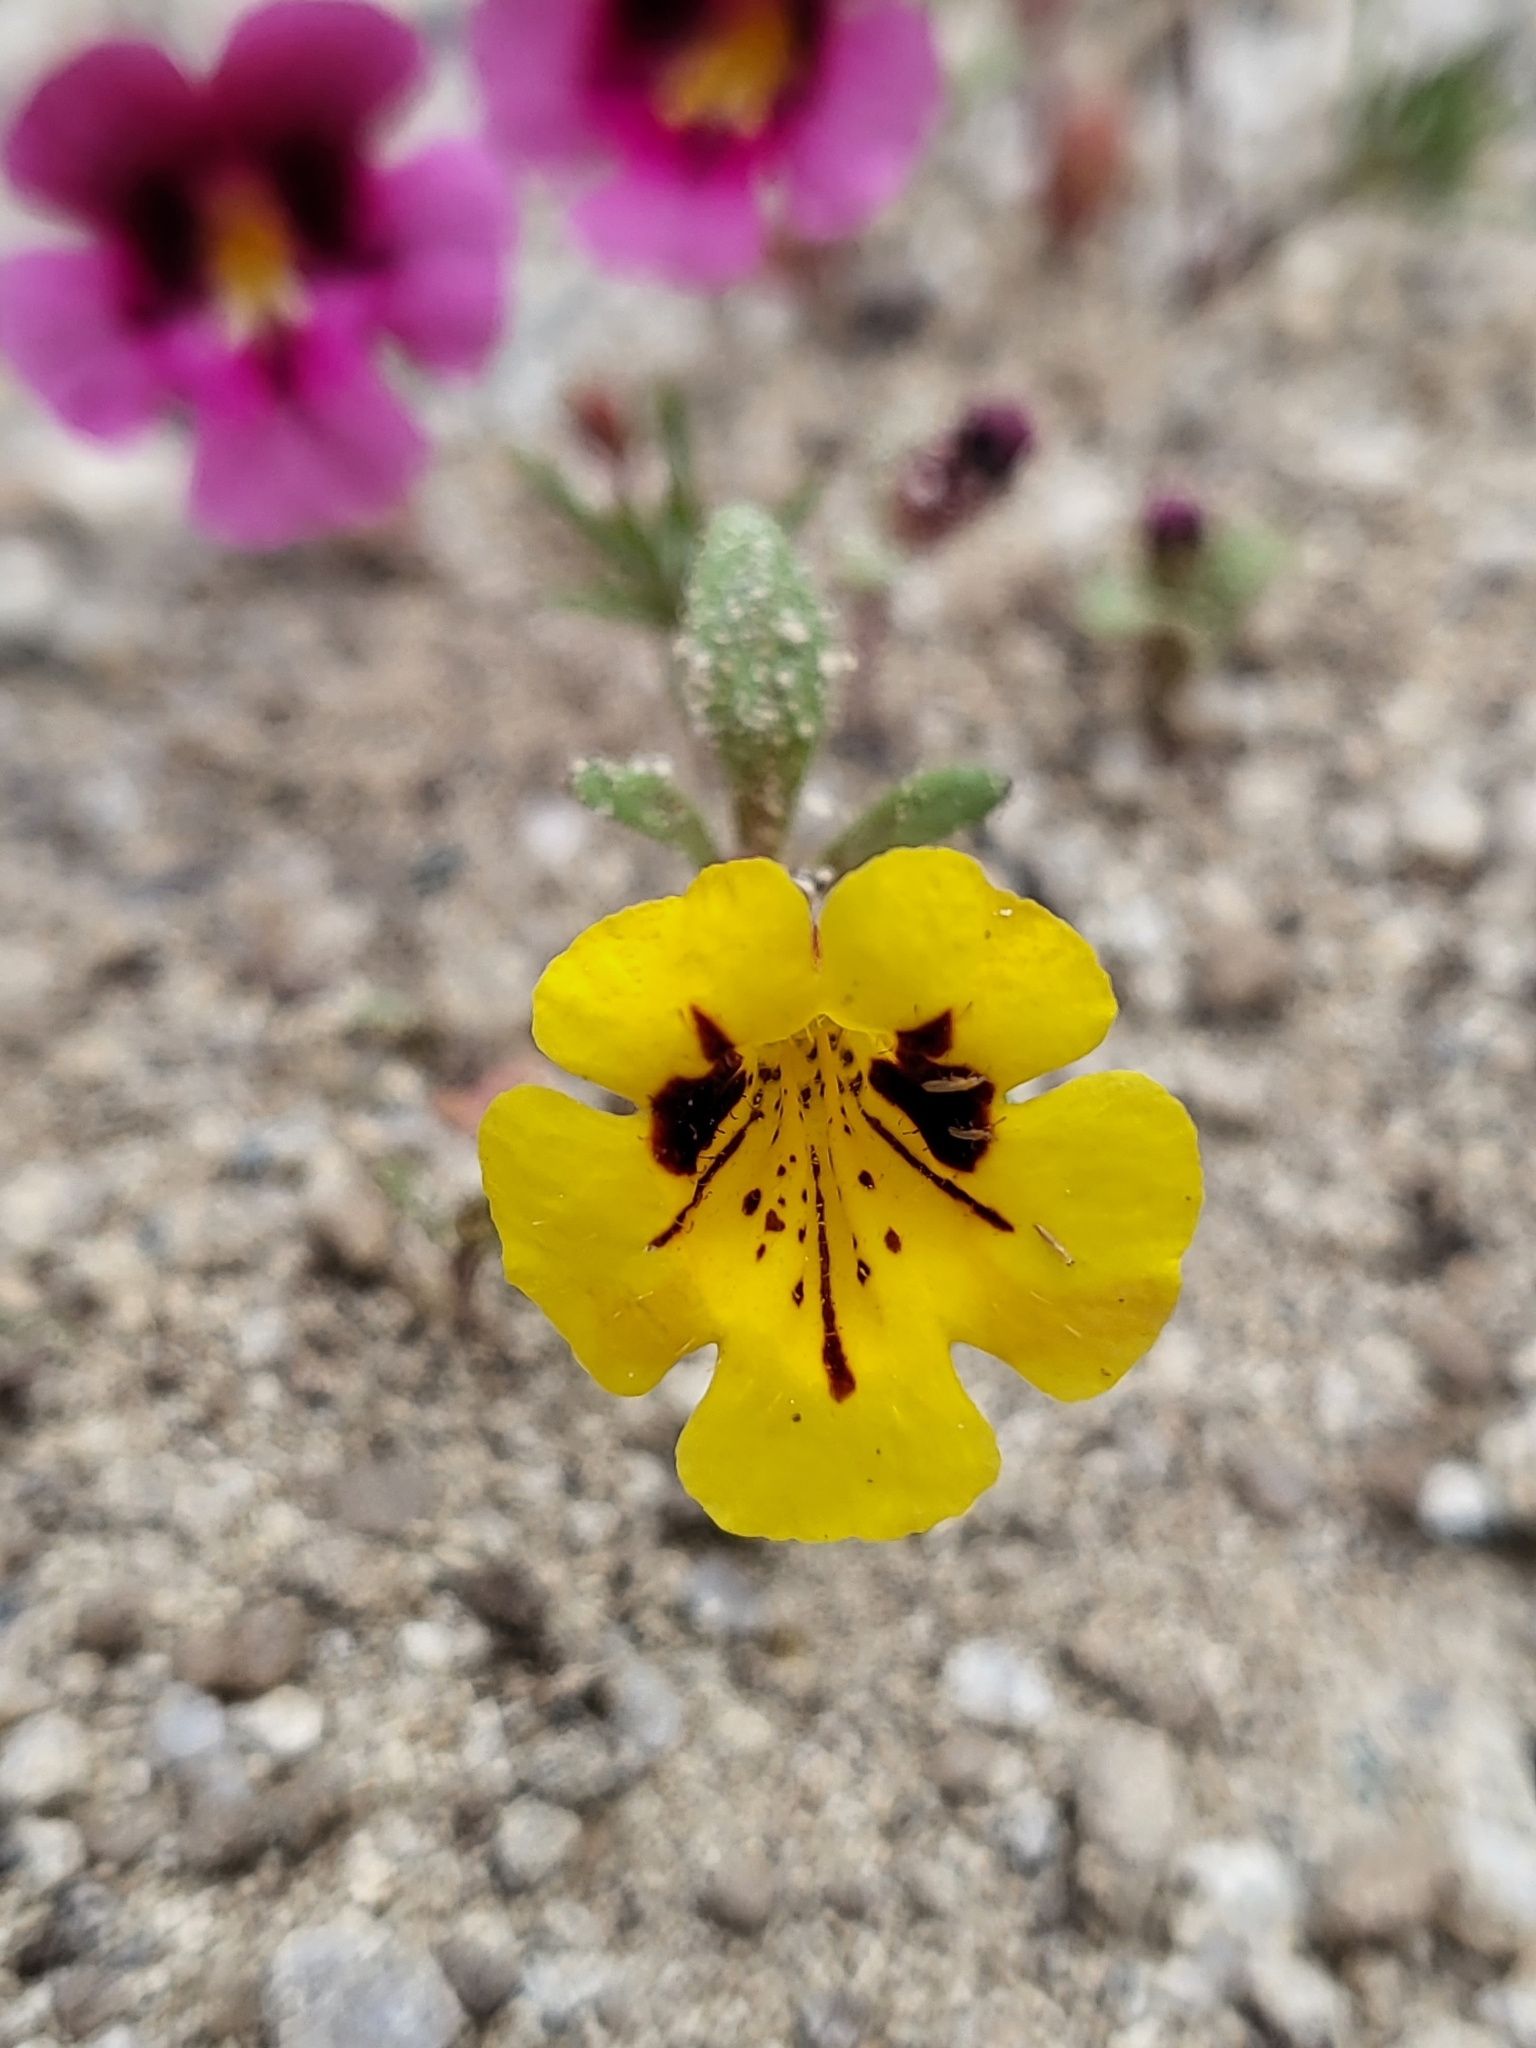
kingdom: Plantae
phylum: Tracheophyta
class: Magnoliopsida
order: Lamiales
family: Phrymaceae
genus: Diplacus
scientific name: Diplacus bicolor
